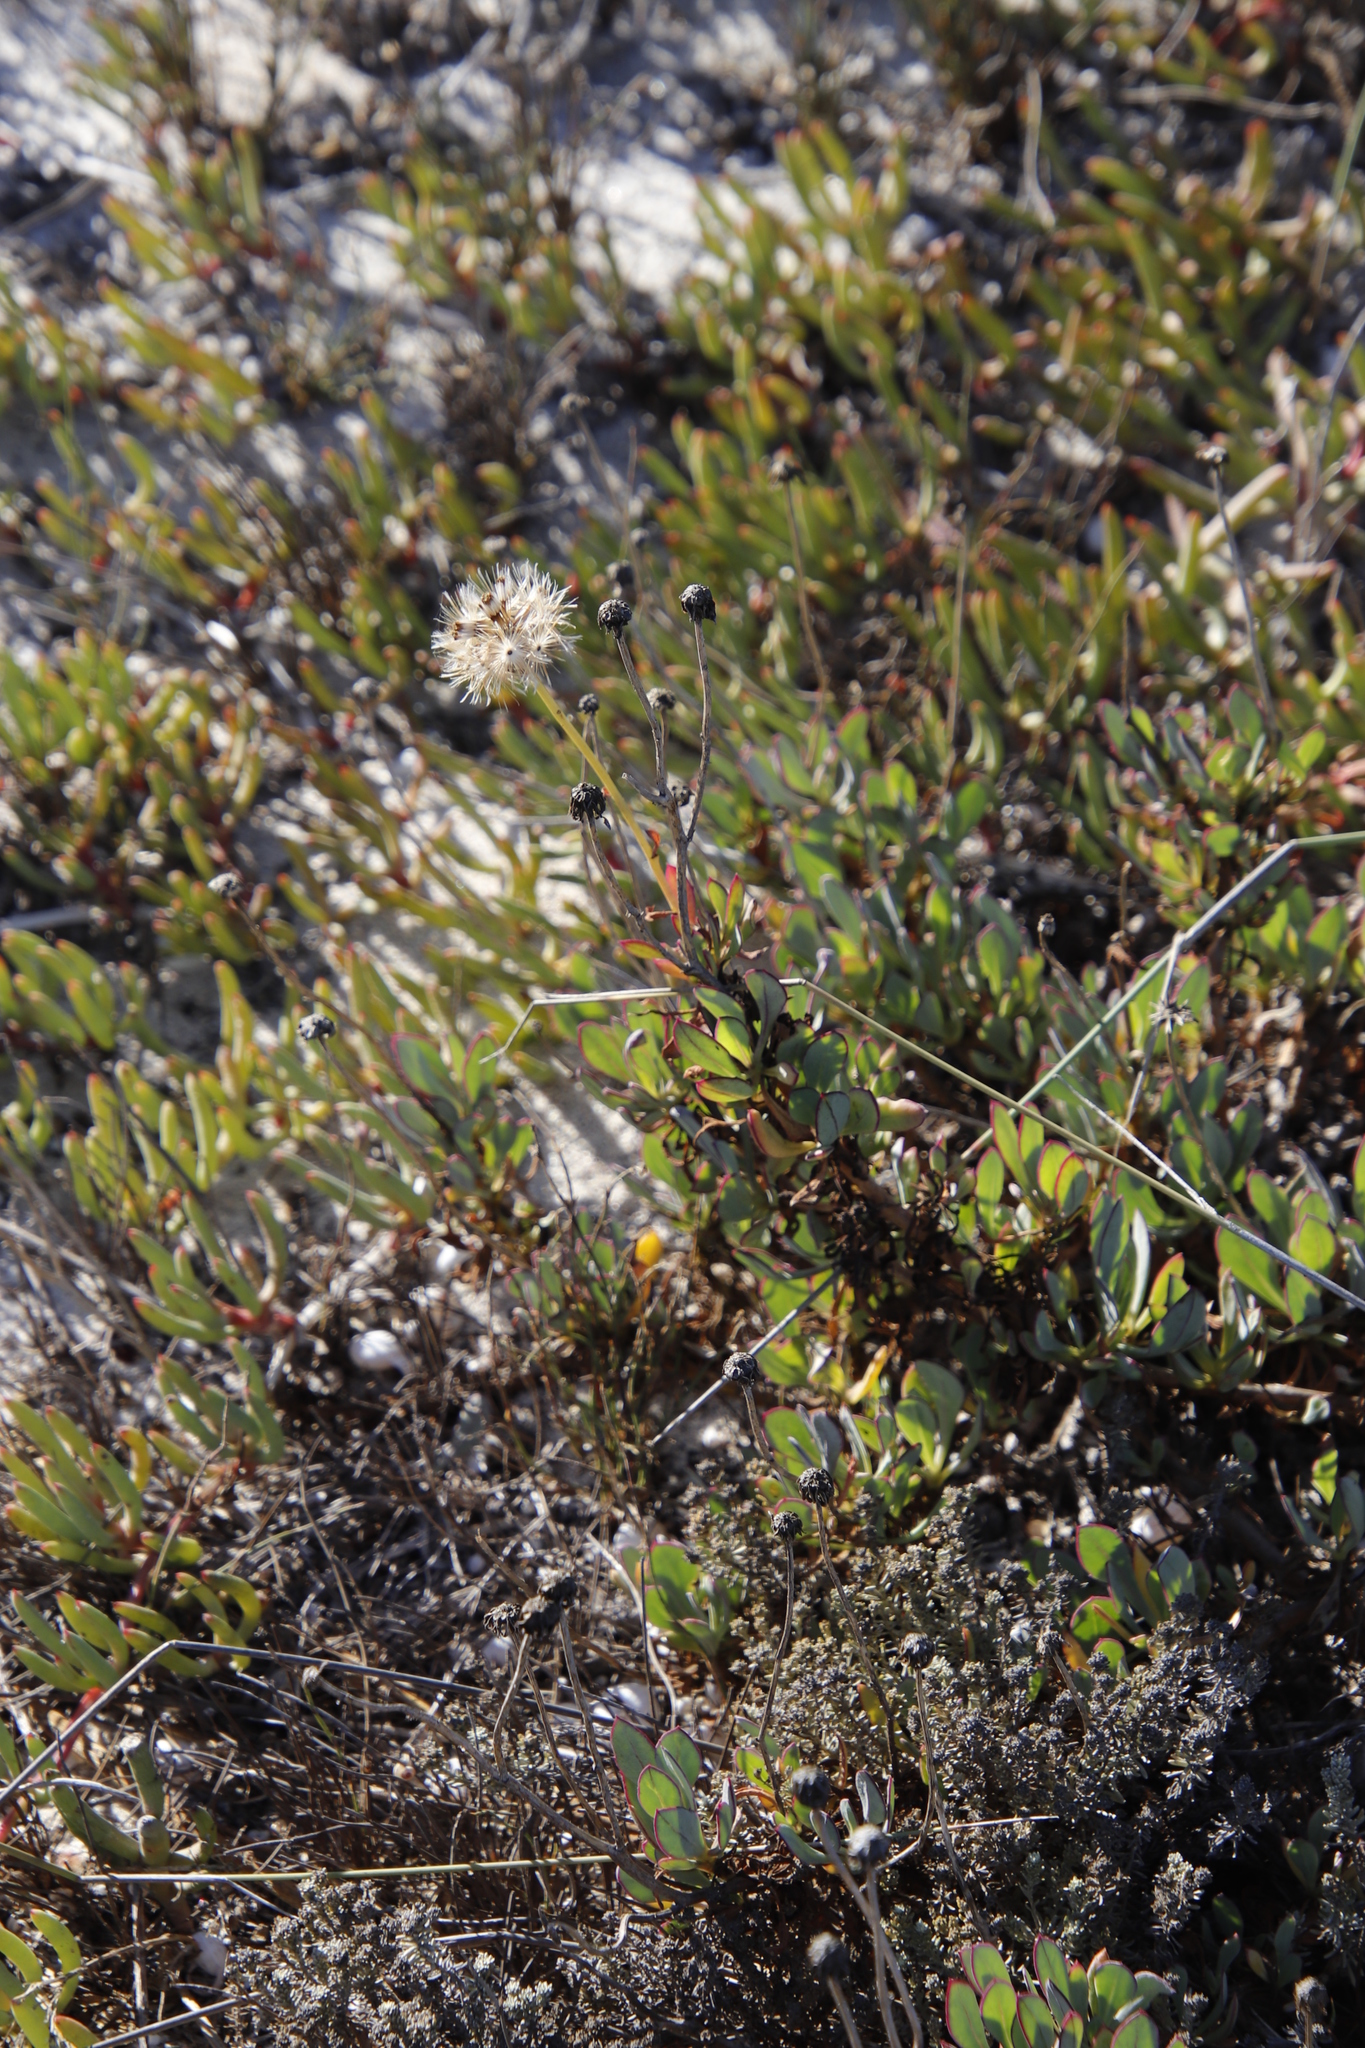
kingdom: Plantae
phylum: Tracheophyta
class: Magnoliopsida
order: Asterales
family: Asteraceae
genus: Othonna
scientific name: Othonna coronopifolia
